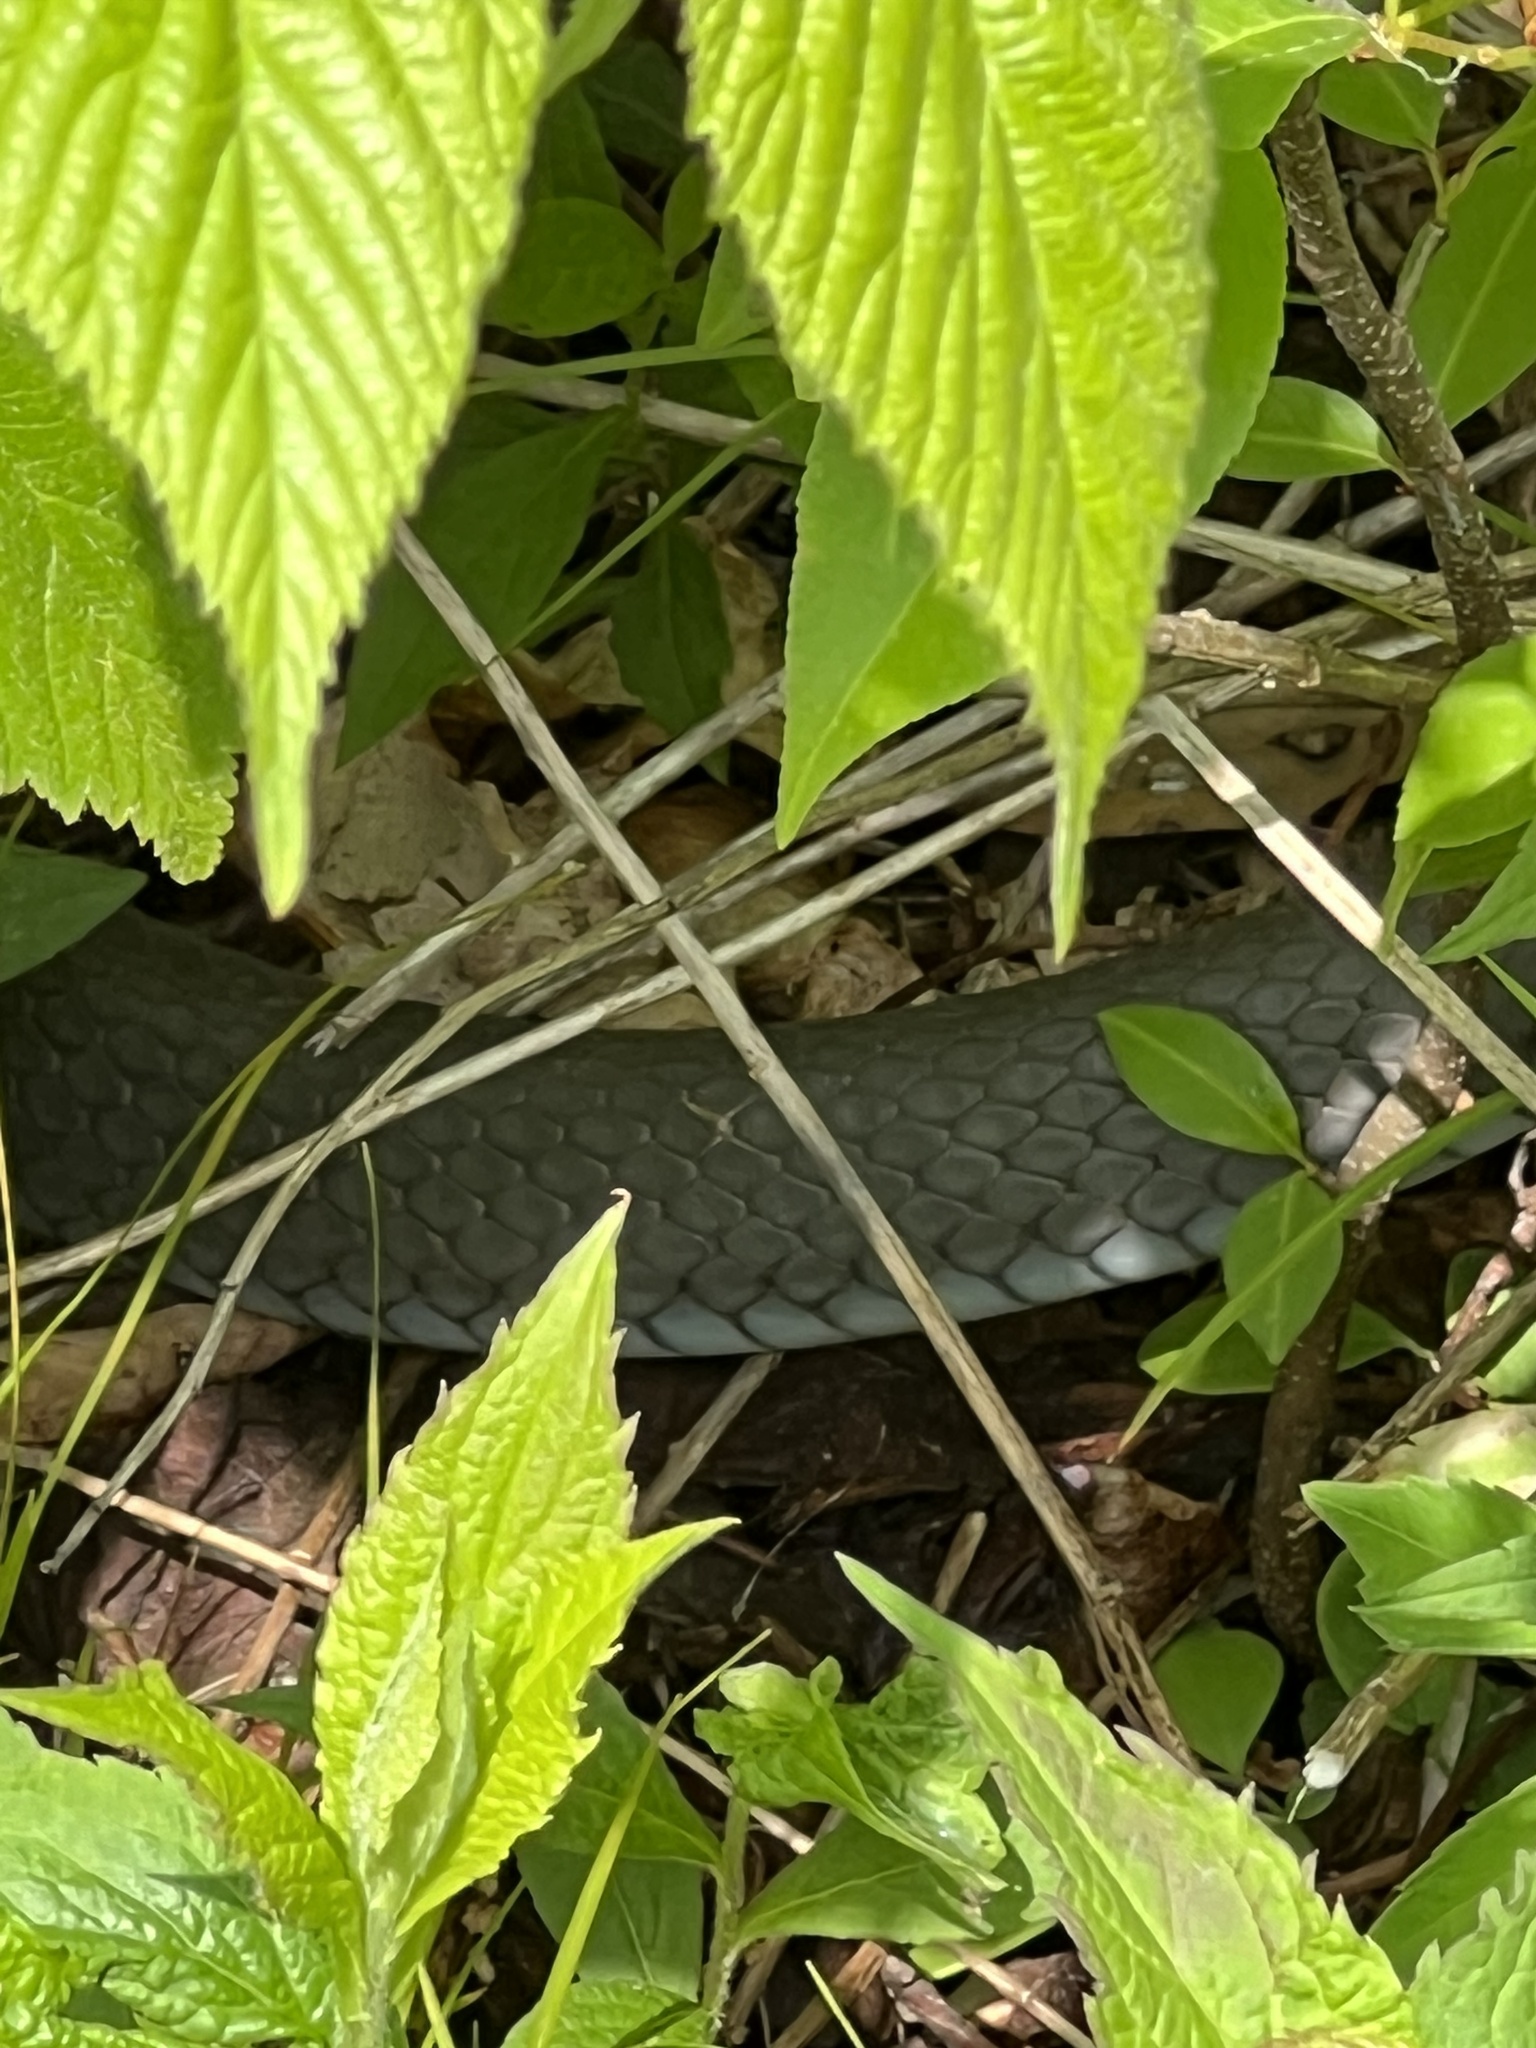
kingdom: Animalia
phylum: Chordata
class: Squamata
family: Colubridae
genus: Coluber
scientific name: Coluber constrictor
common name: Eastern racer
